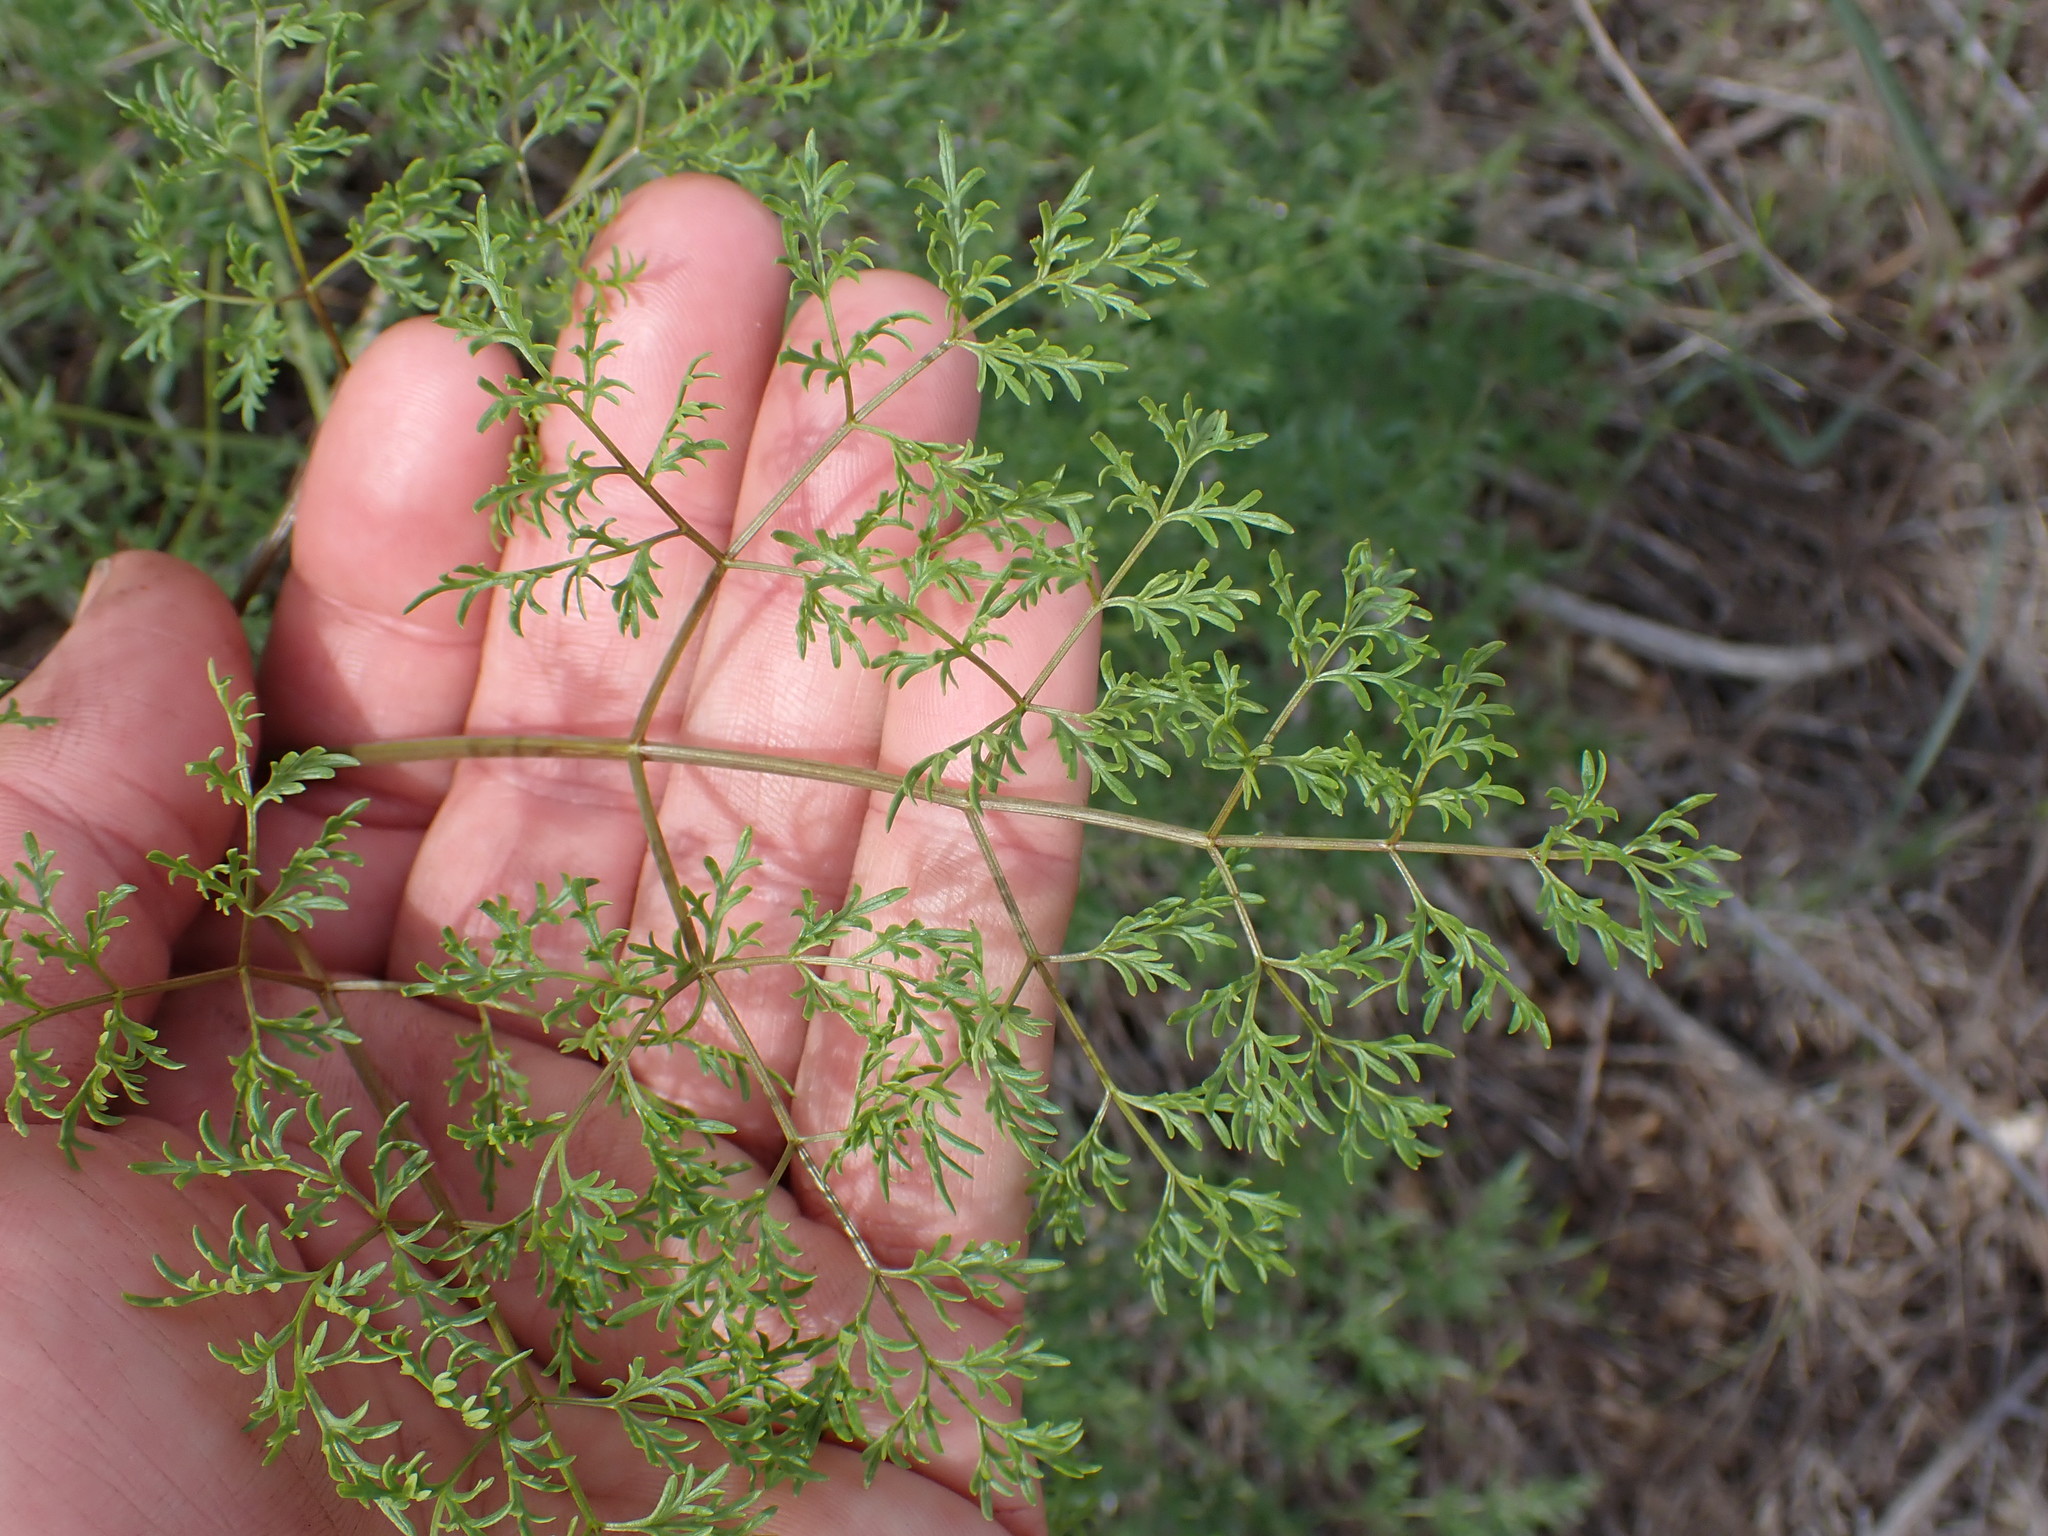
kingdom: Plantae
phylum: Tracheophyta
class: Magnoliopsida
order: Apiales
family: Apiaceae
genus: Lomatium
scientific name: Lomatium multifidum
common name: Carrot-leaved biscuitroot
